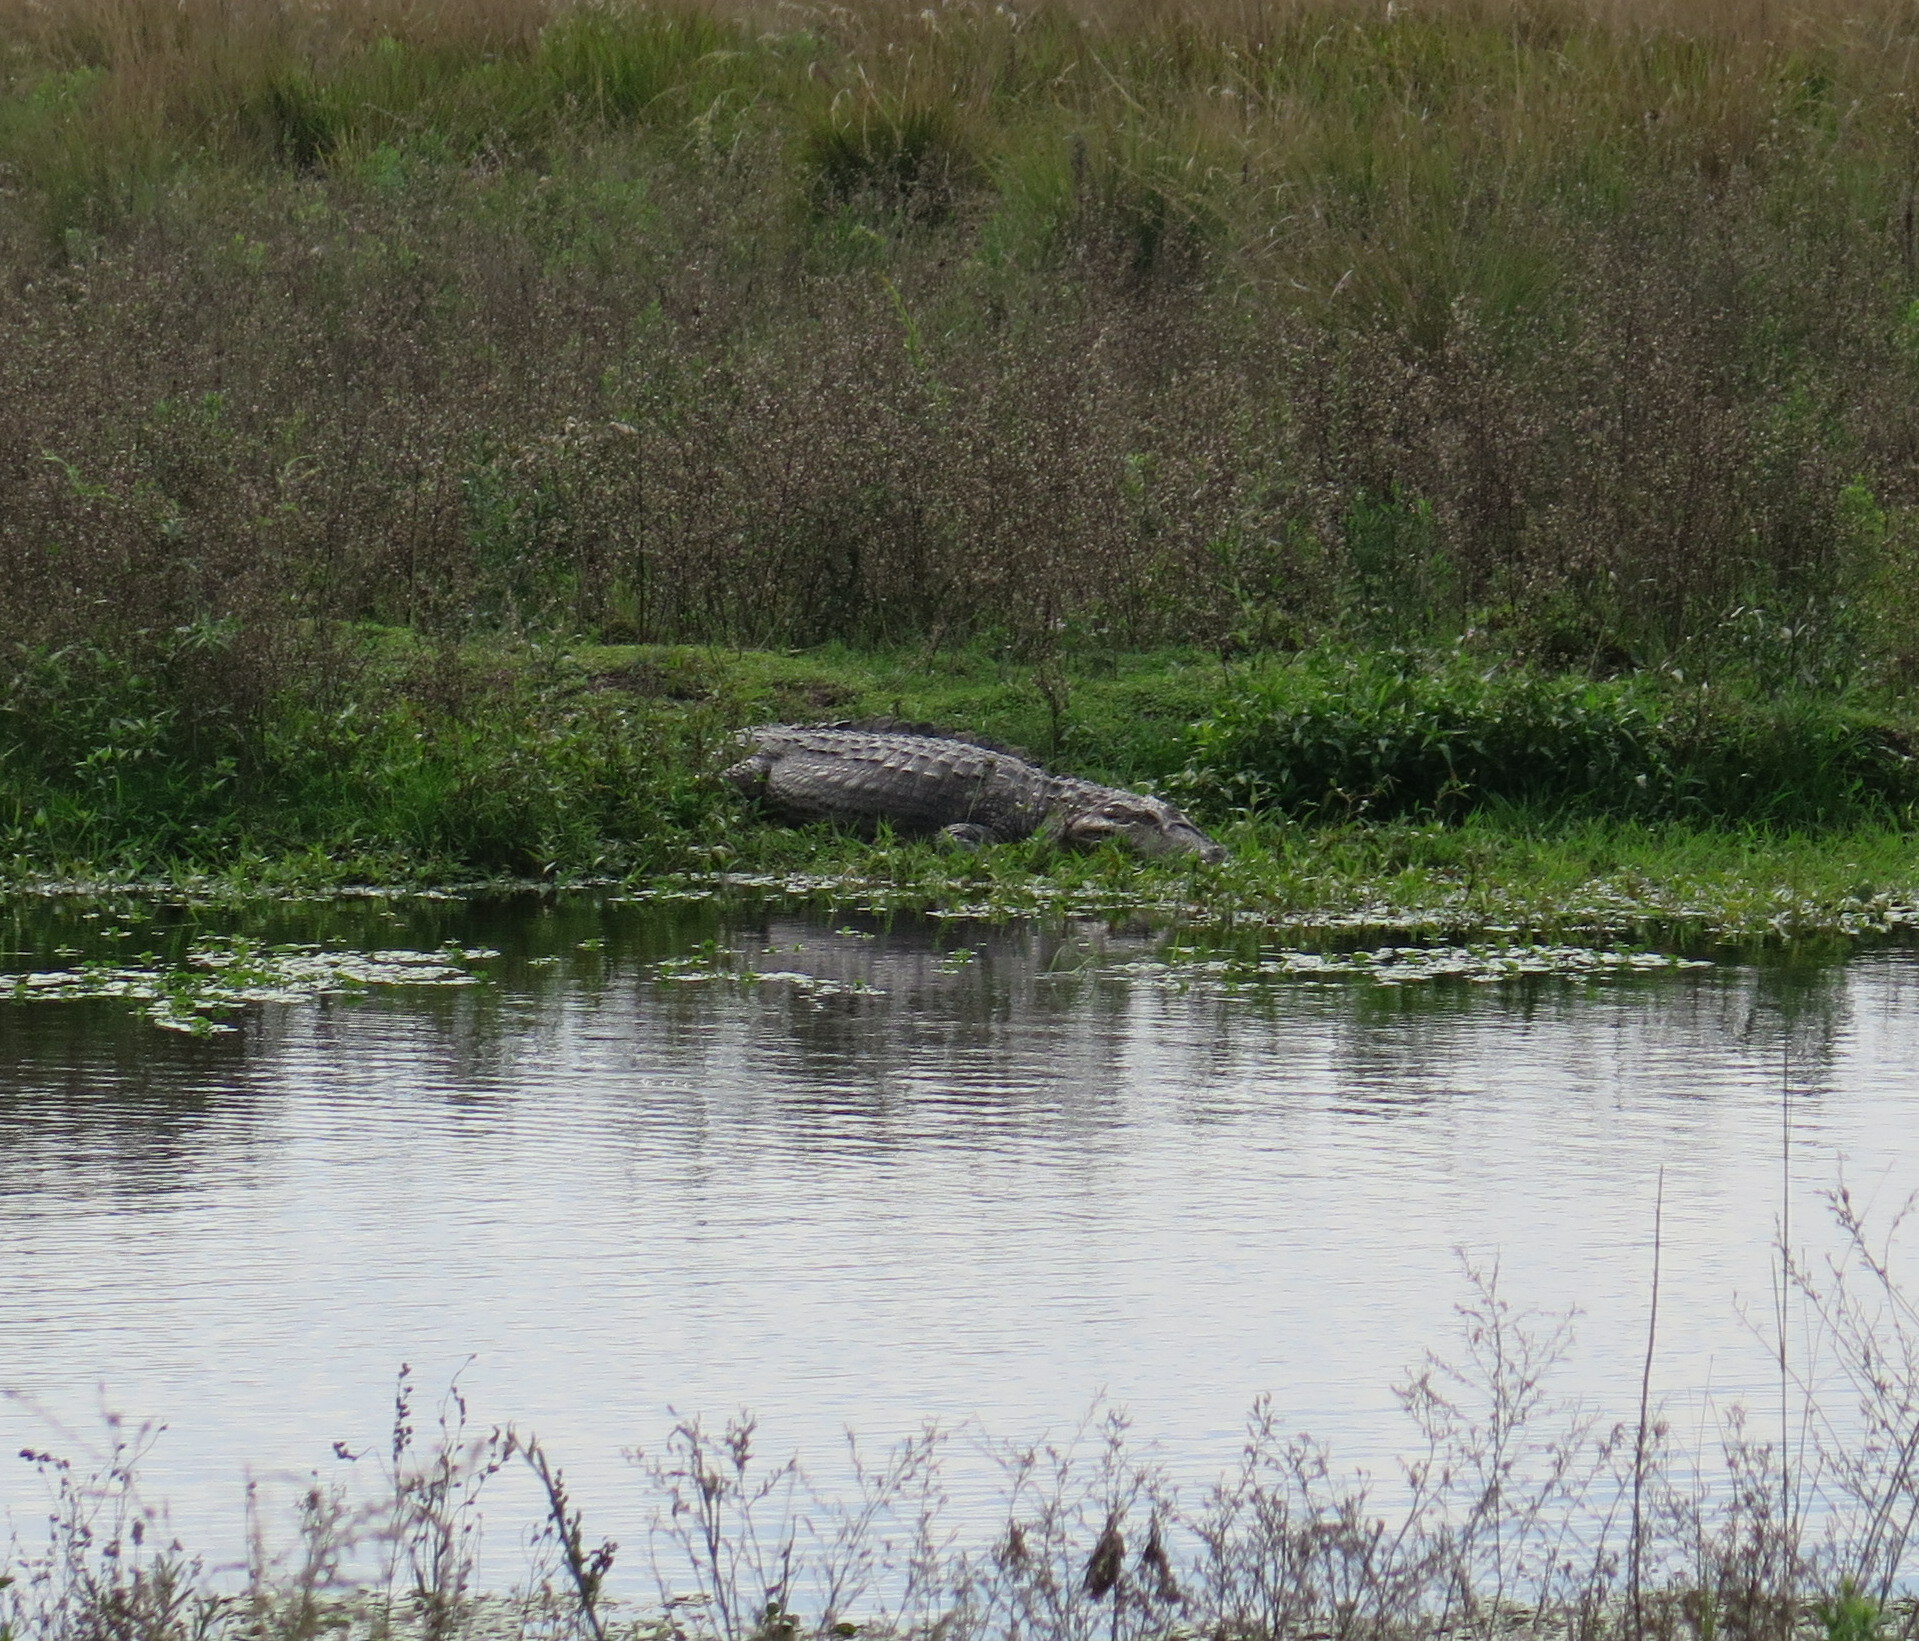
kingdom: Animalia
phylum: Chordata
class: Crocodylia
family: Alligatoridae
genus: Caiman
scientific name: Caiman yacare
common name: Yacare caiman
